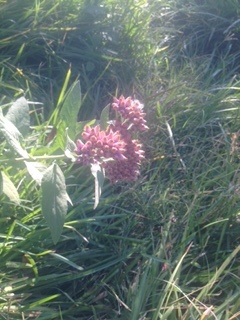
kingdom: Plantae
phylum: Tracheophyta
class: Magnoliopsida
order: Asterales
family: Asteraceae
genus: Pluchea
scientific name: Pluchea odorata
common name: Saltmarsh fleabane
